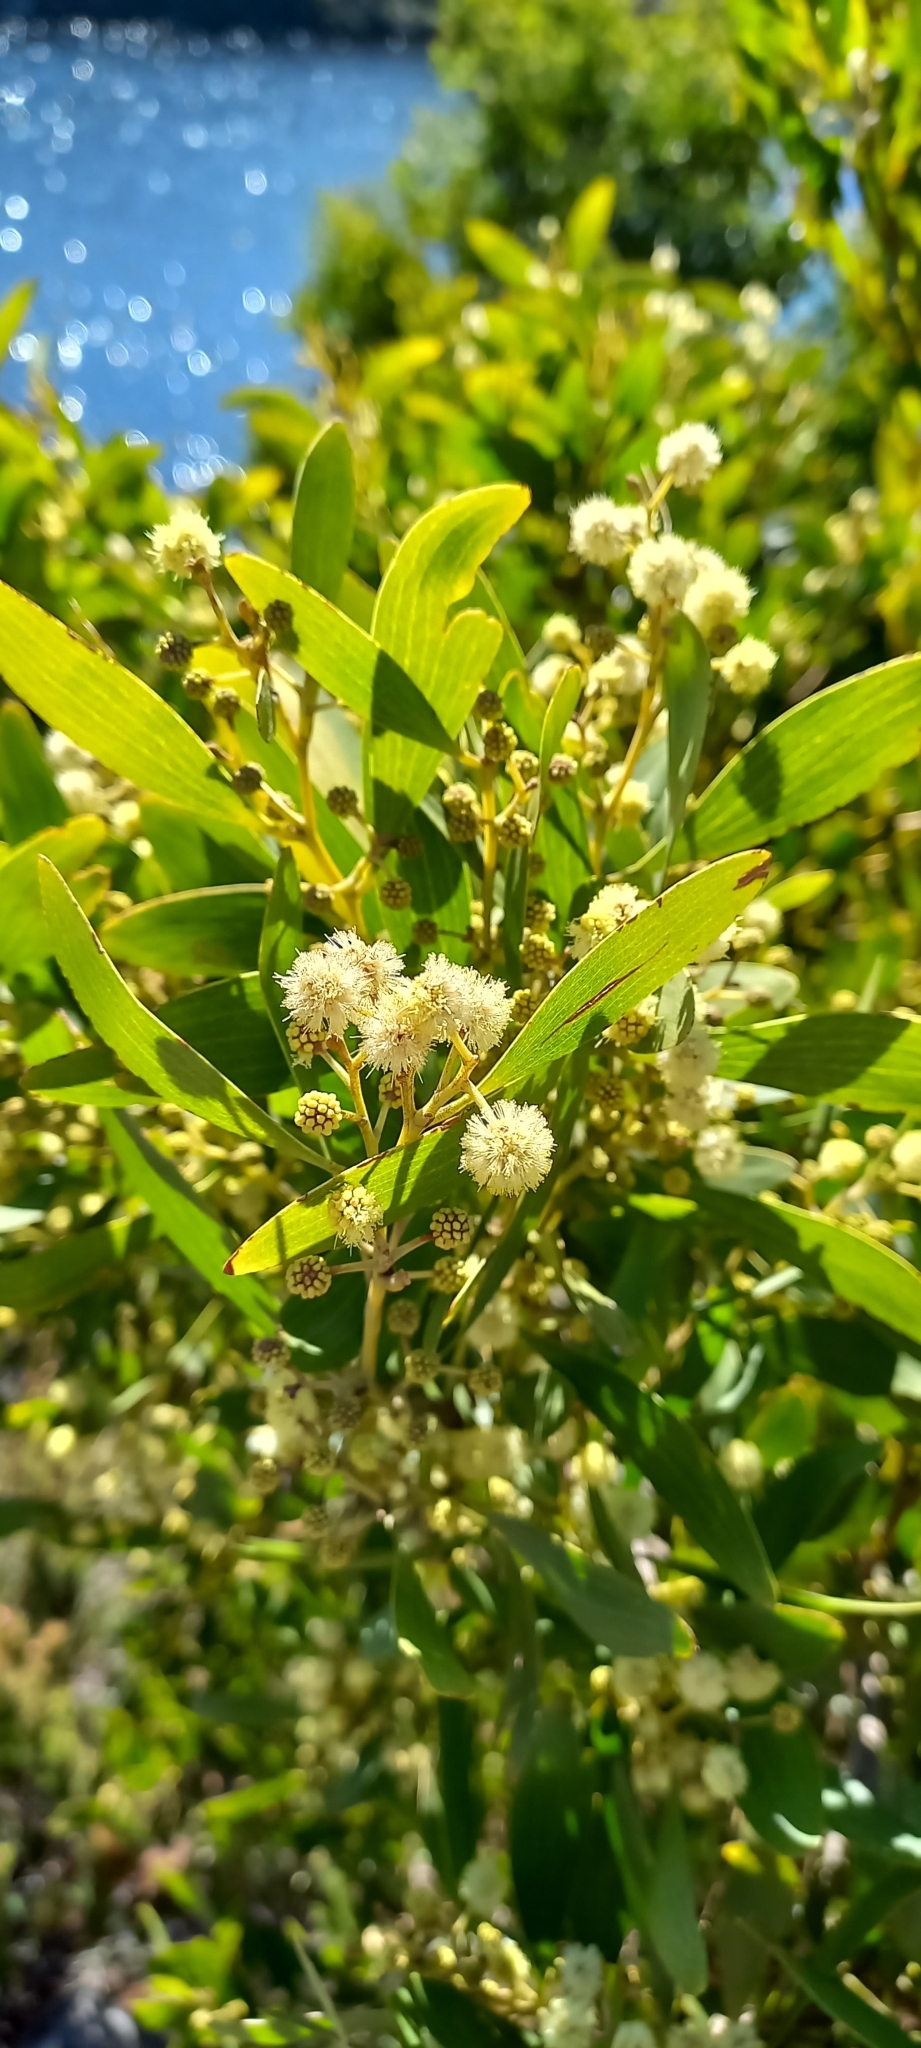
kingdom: Plantae
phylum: Tracheophyta
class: Magnoliopsida
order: Fabales
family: Fabaceae
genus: Acacia
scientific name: Acacia melanoxylon
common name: Blackwood
